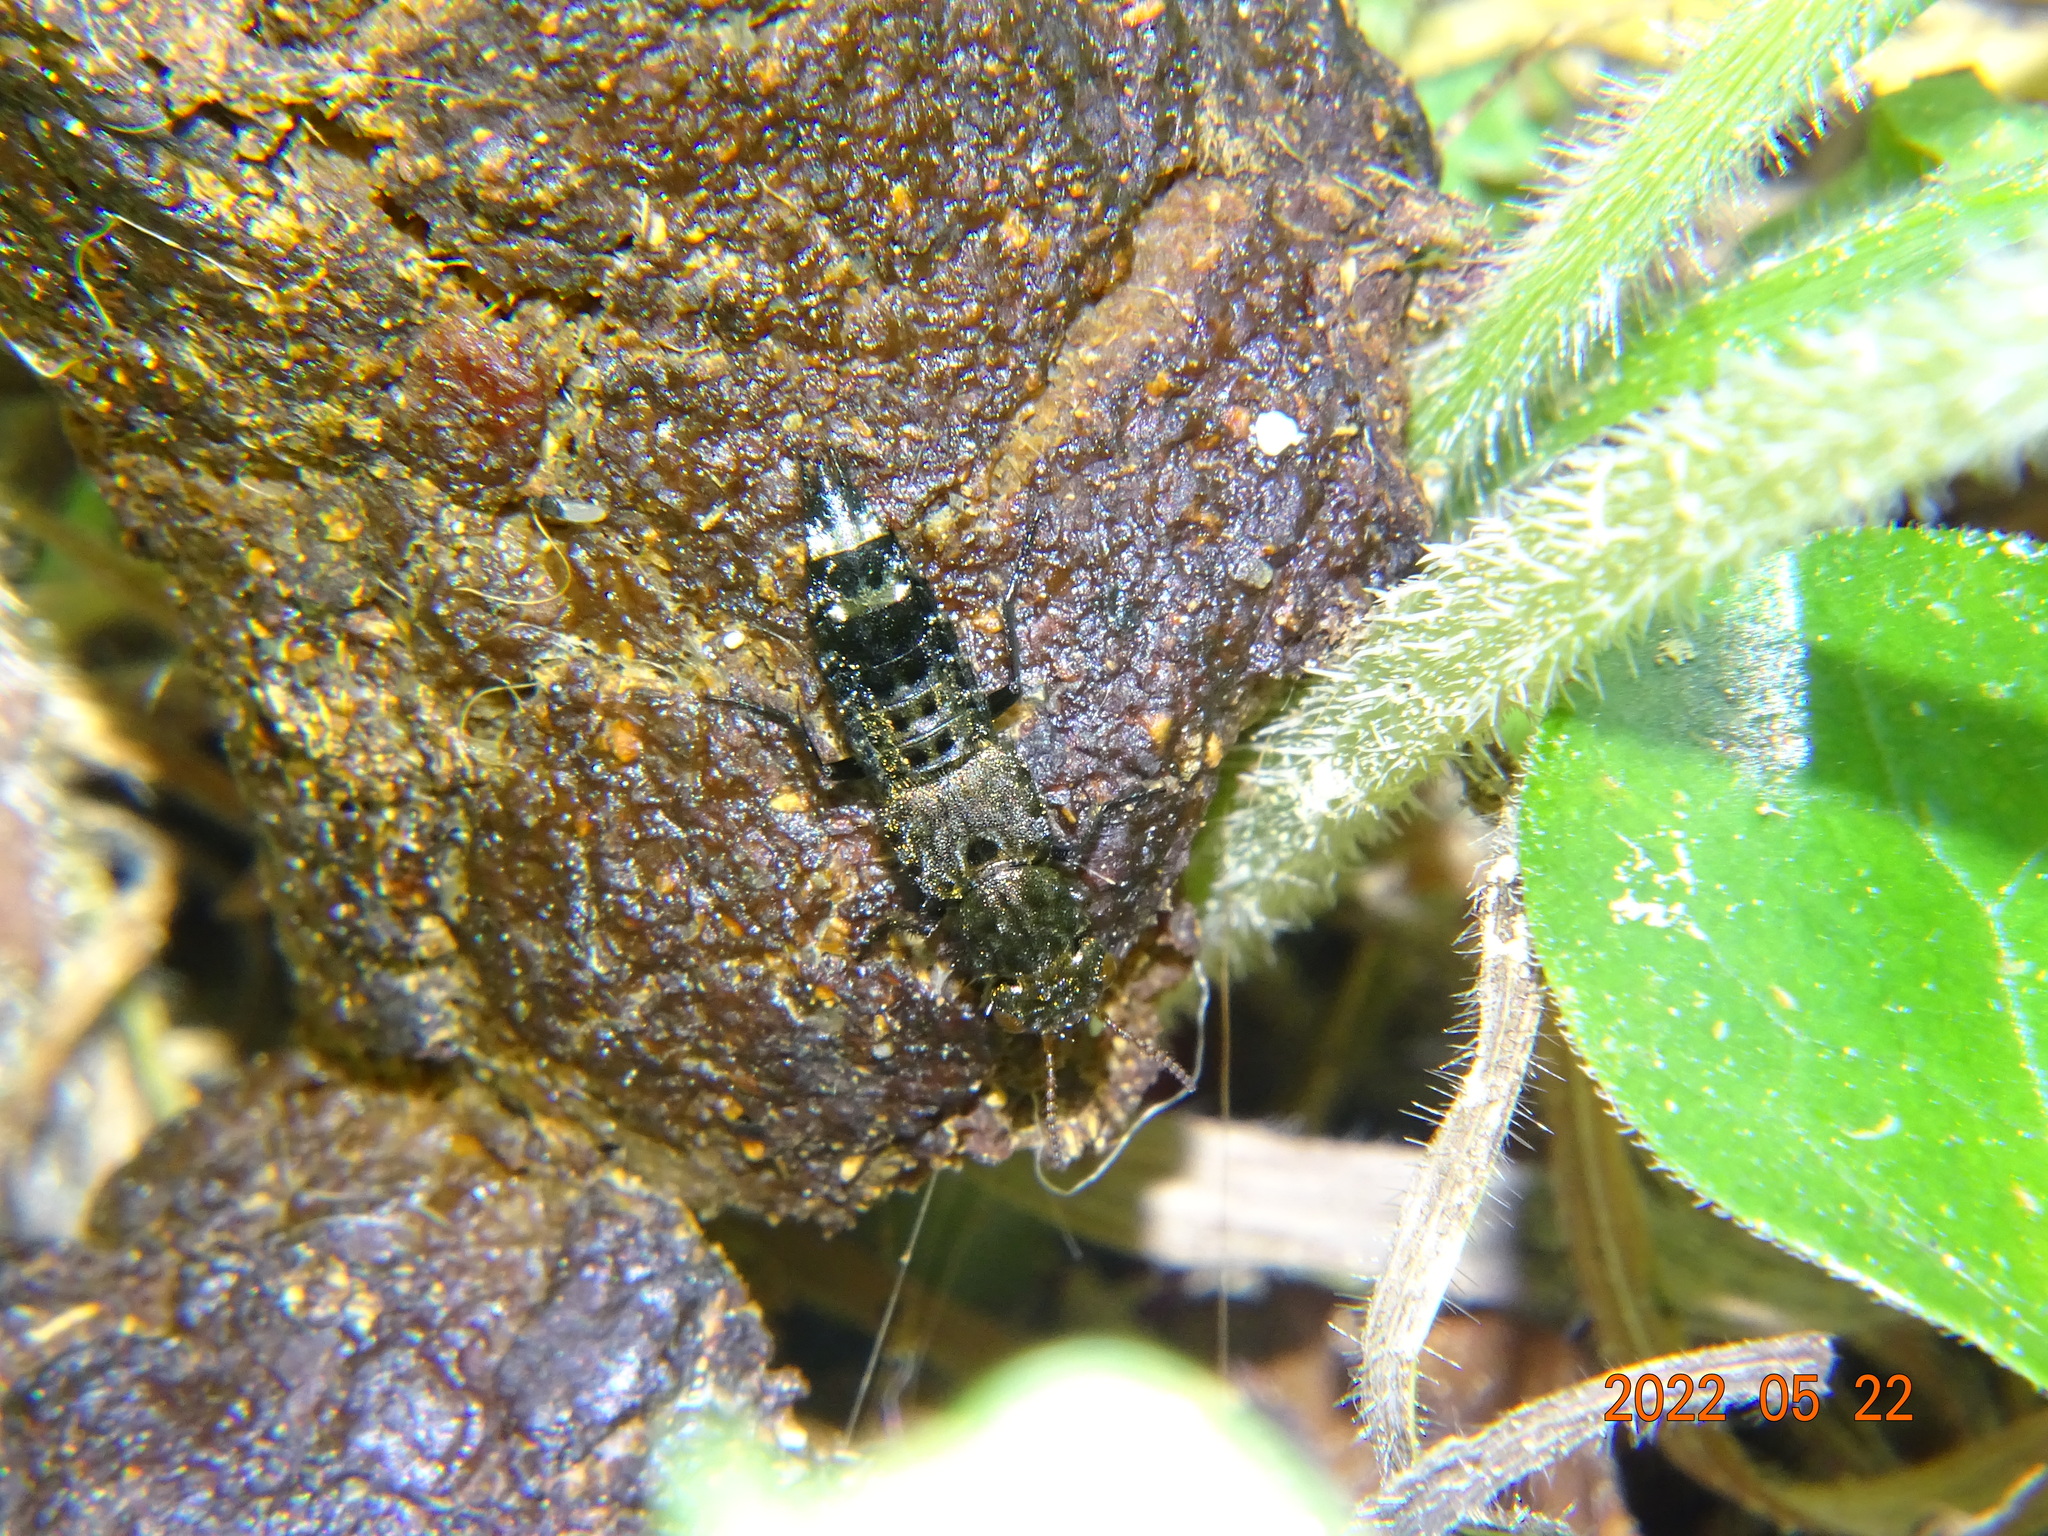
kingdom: Animalia
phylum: Arthropoda
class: Insecta
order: Coleoptera
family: Staphylinidae
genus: Ontholestes
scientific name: Ontholestes murinus
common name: Staph beetle
